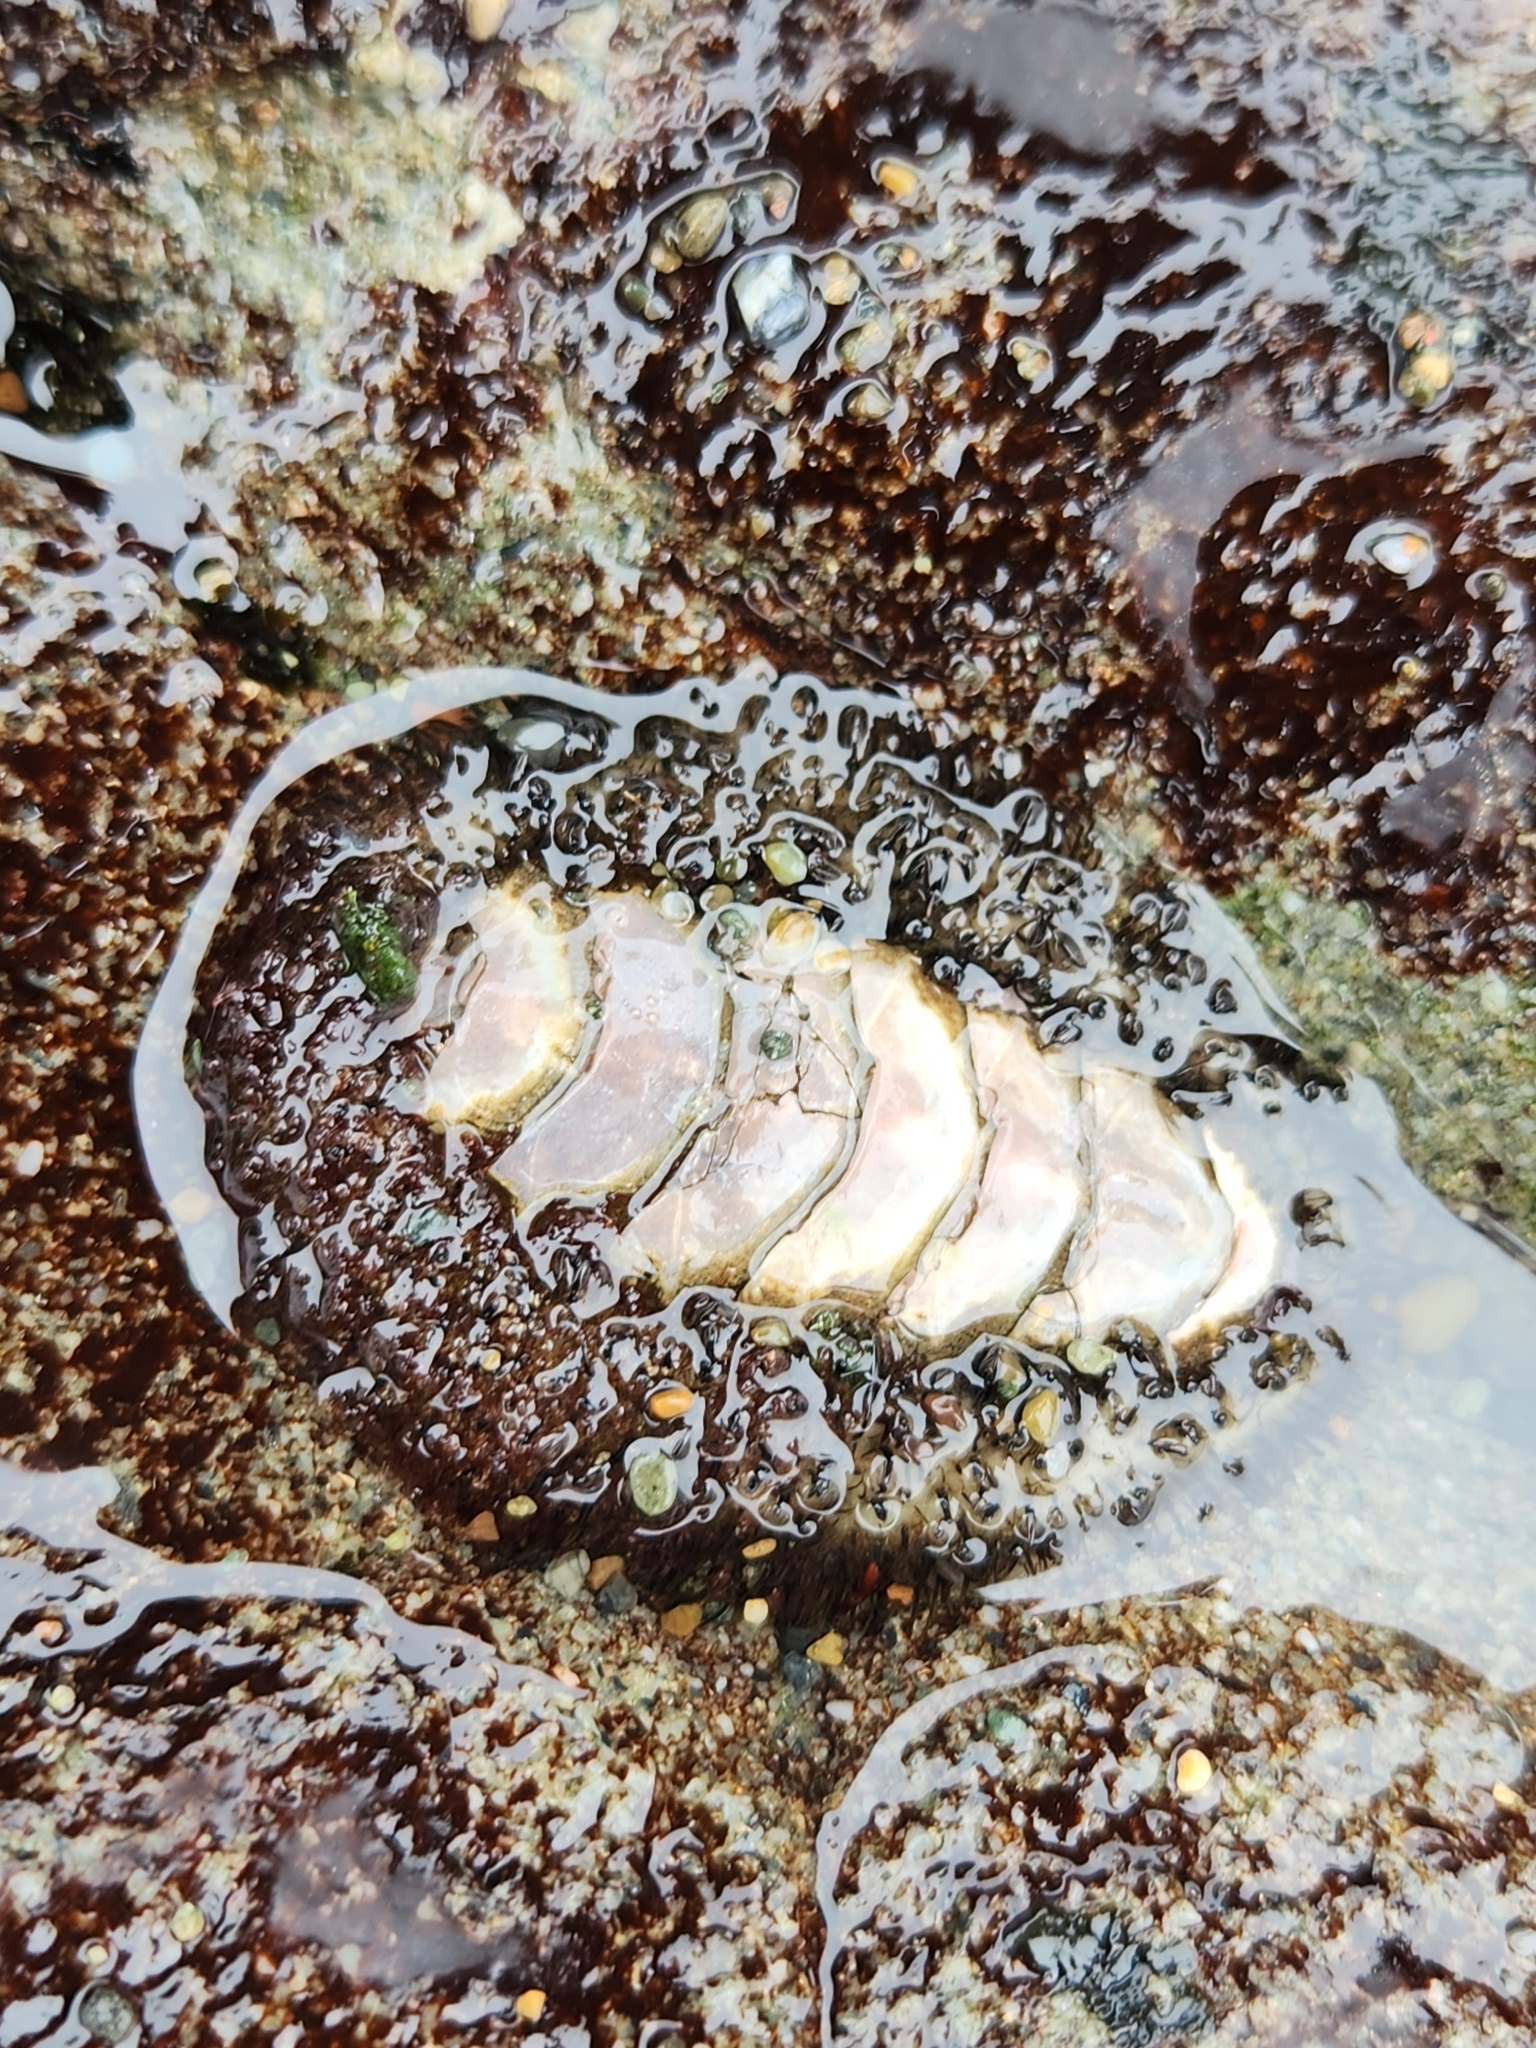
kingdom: Animalia
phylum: Mollusca
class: Polyplacophora
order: Chitonida
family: Mopaliidae
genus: Mopalia
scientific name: Mopalia muscosa
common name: Mossy chiton
